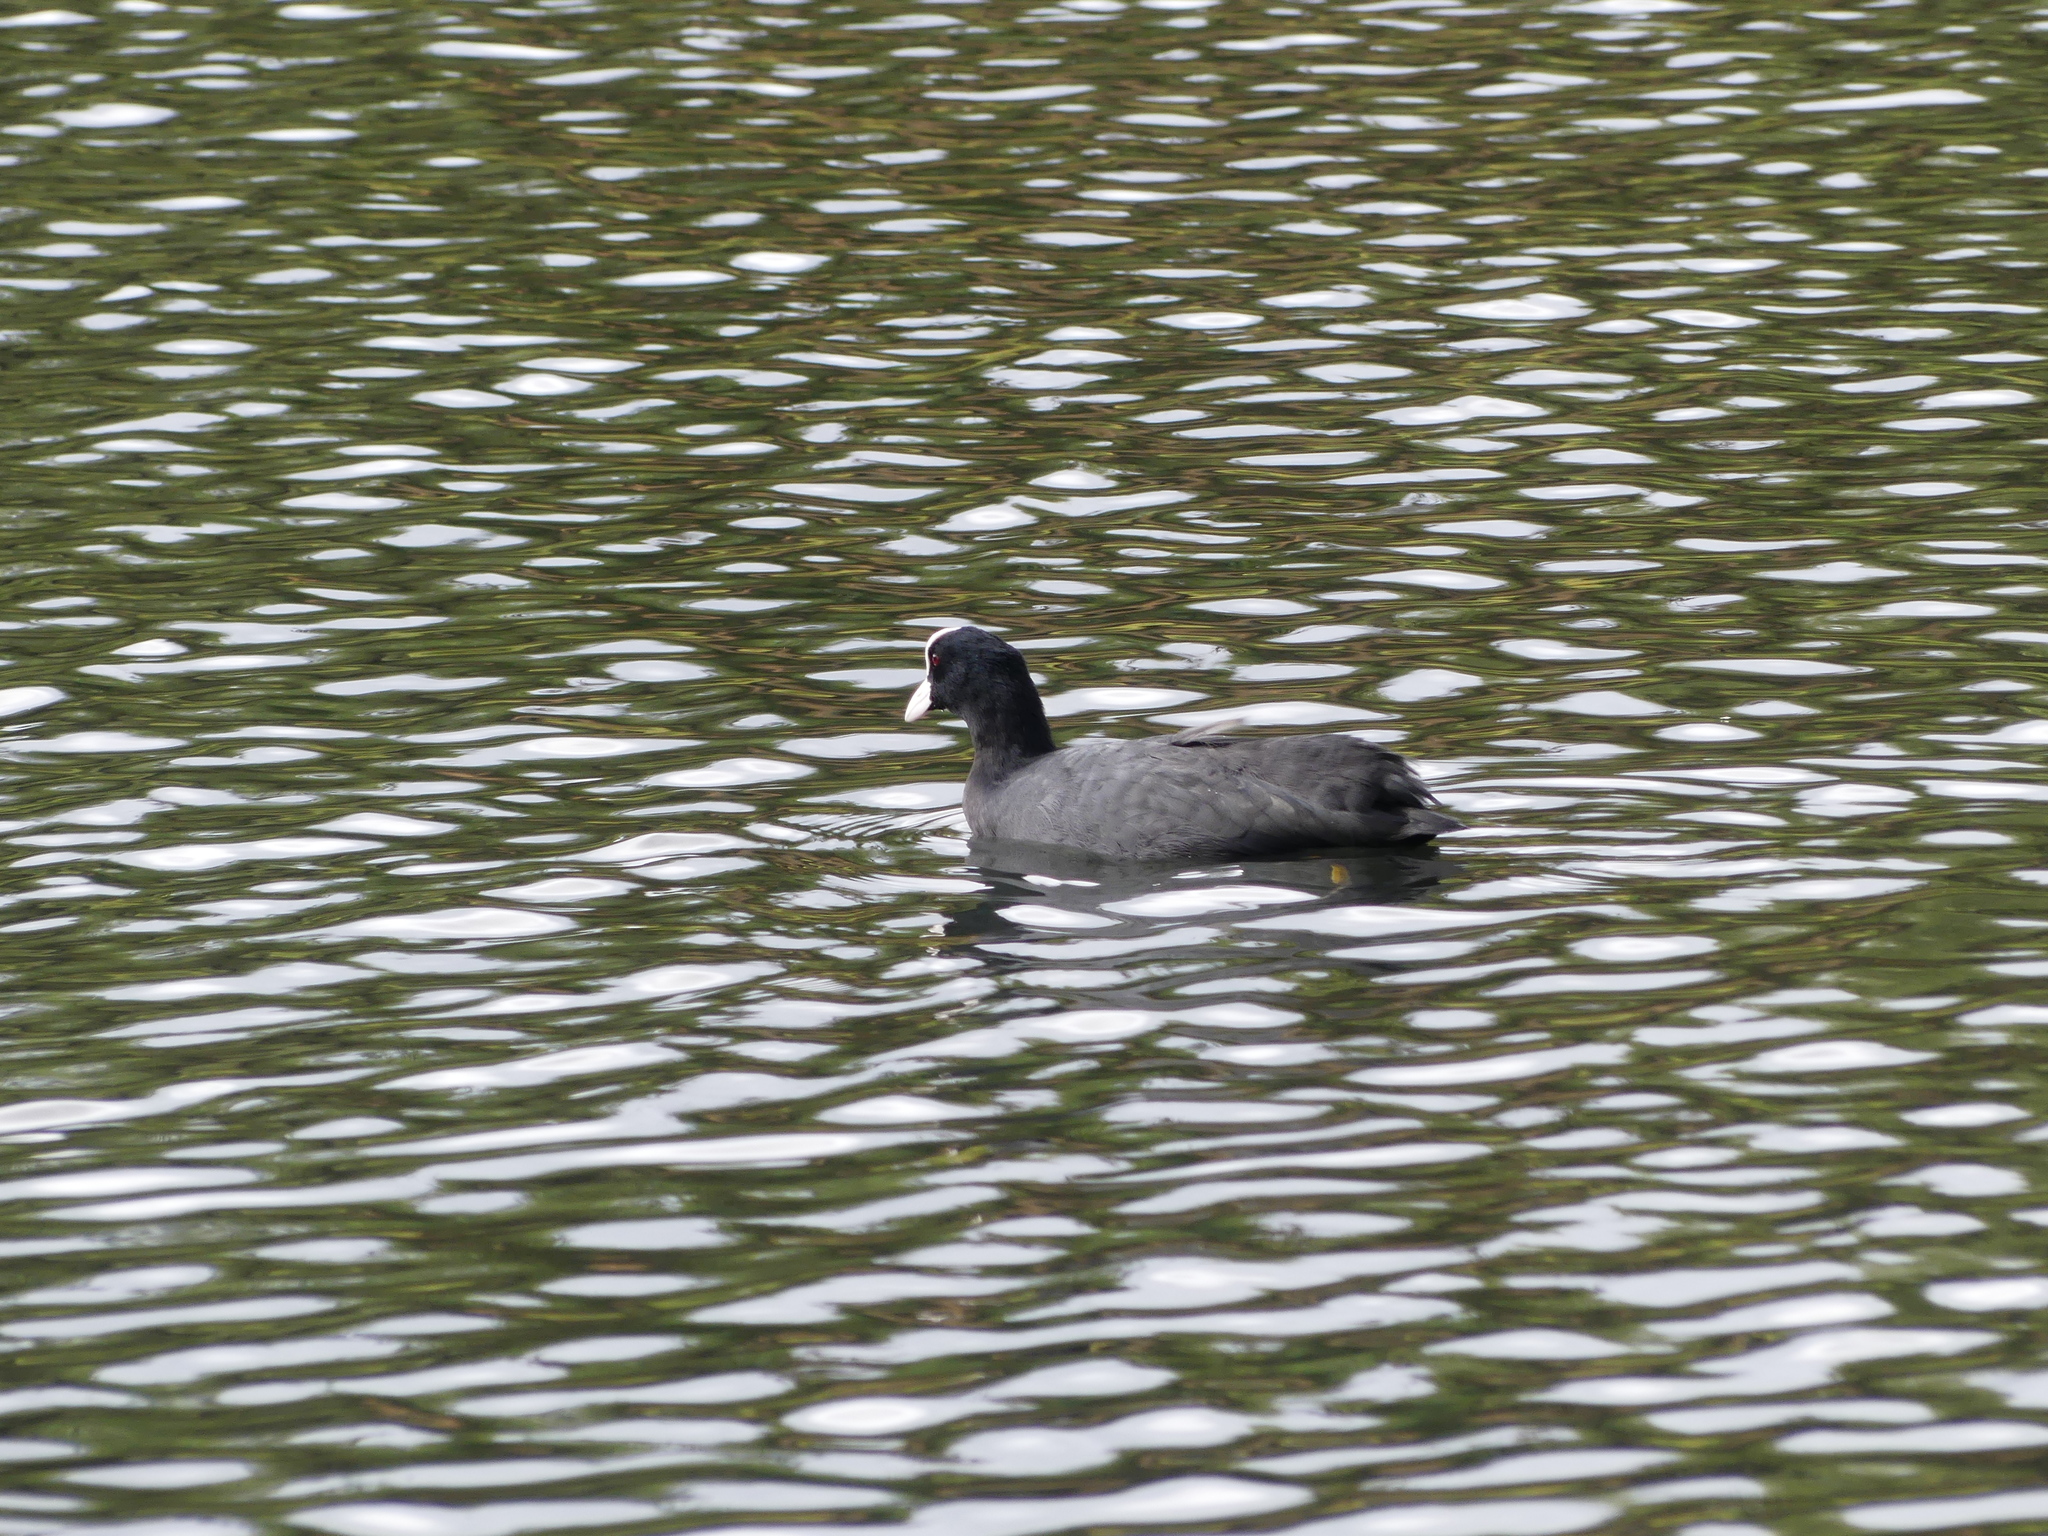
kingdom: Animalia
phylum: Chordata
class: Aves
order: Gruiformes
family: Rallidae
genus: Fulica
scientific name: Fulica atra
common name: Eurasian coot
